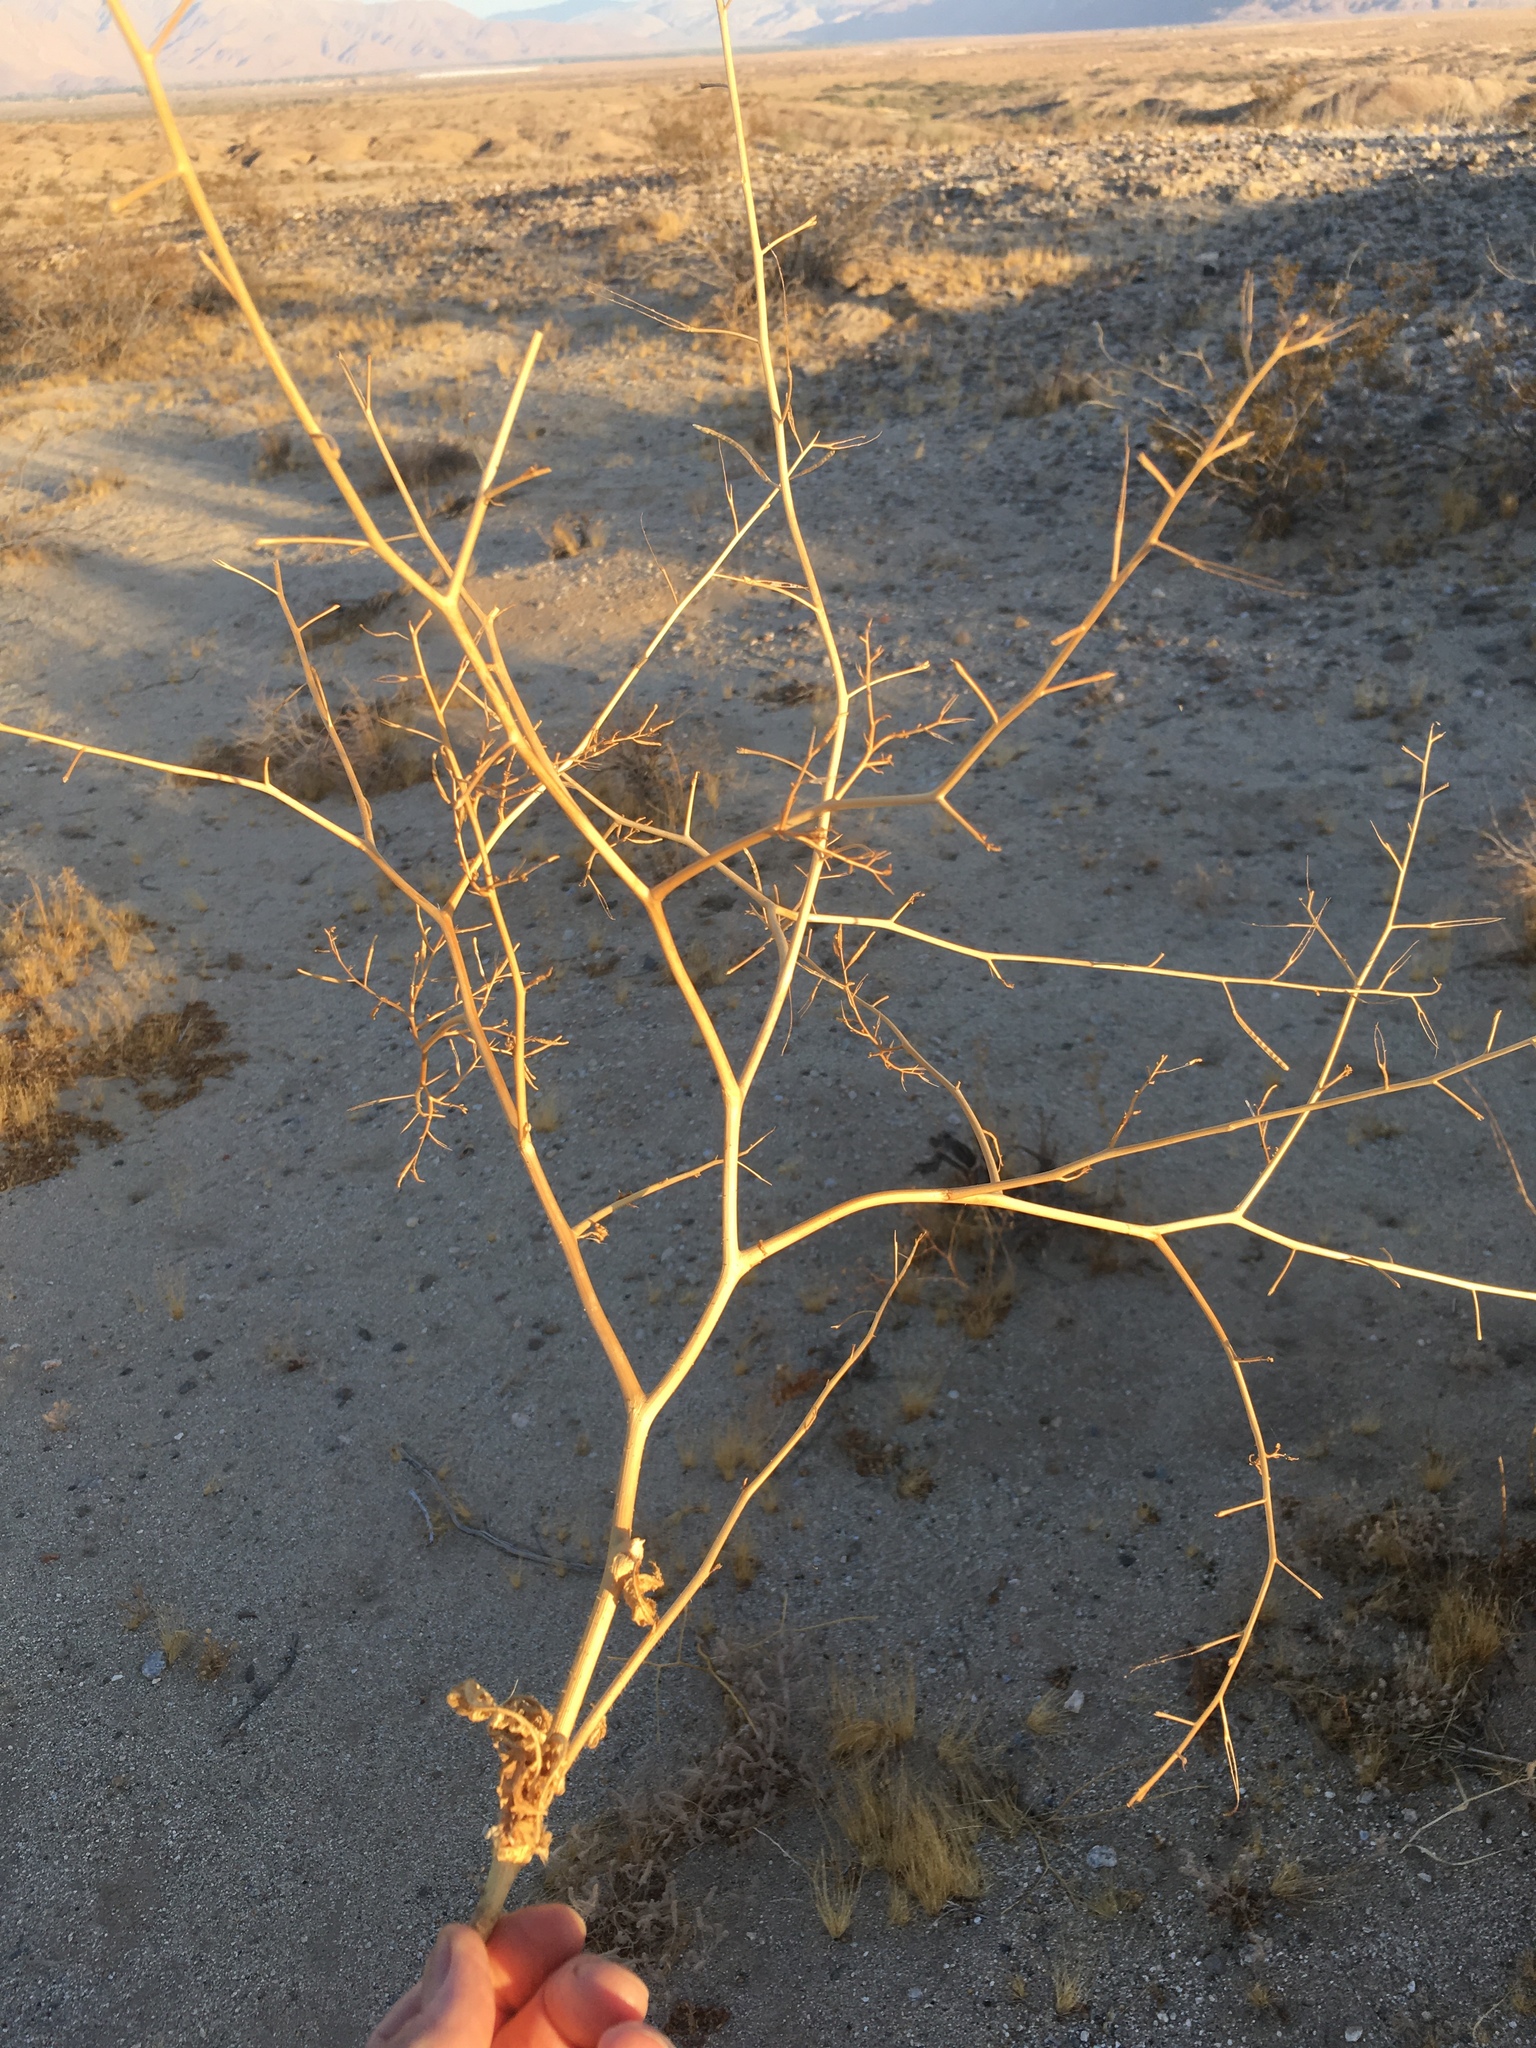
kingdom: Plantae
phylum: Tracheophyta
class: Magnoliopsida
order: Brassicales
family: Brassicaceae
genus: Brassica
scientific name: Brassica tournefortii
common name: Pale cabbage
